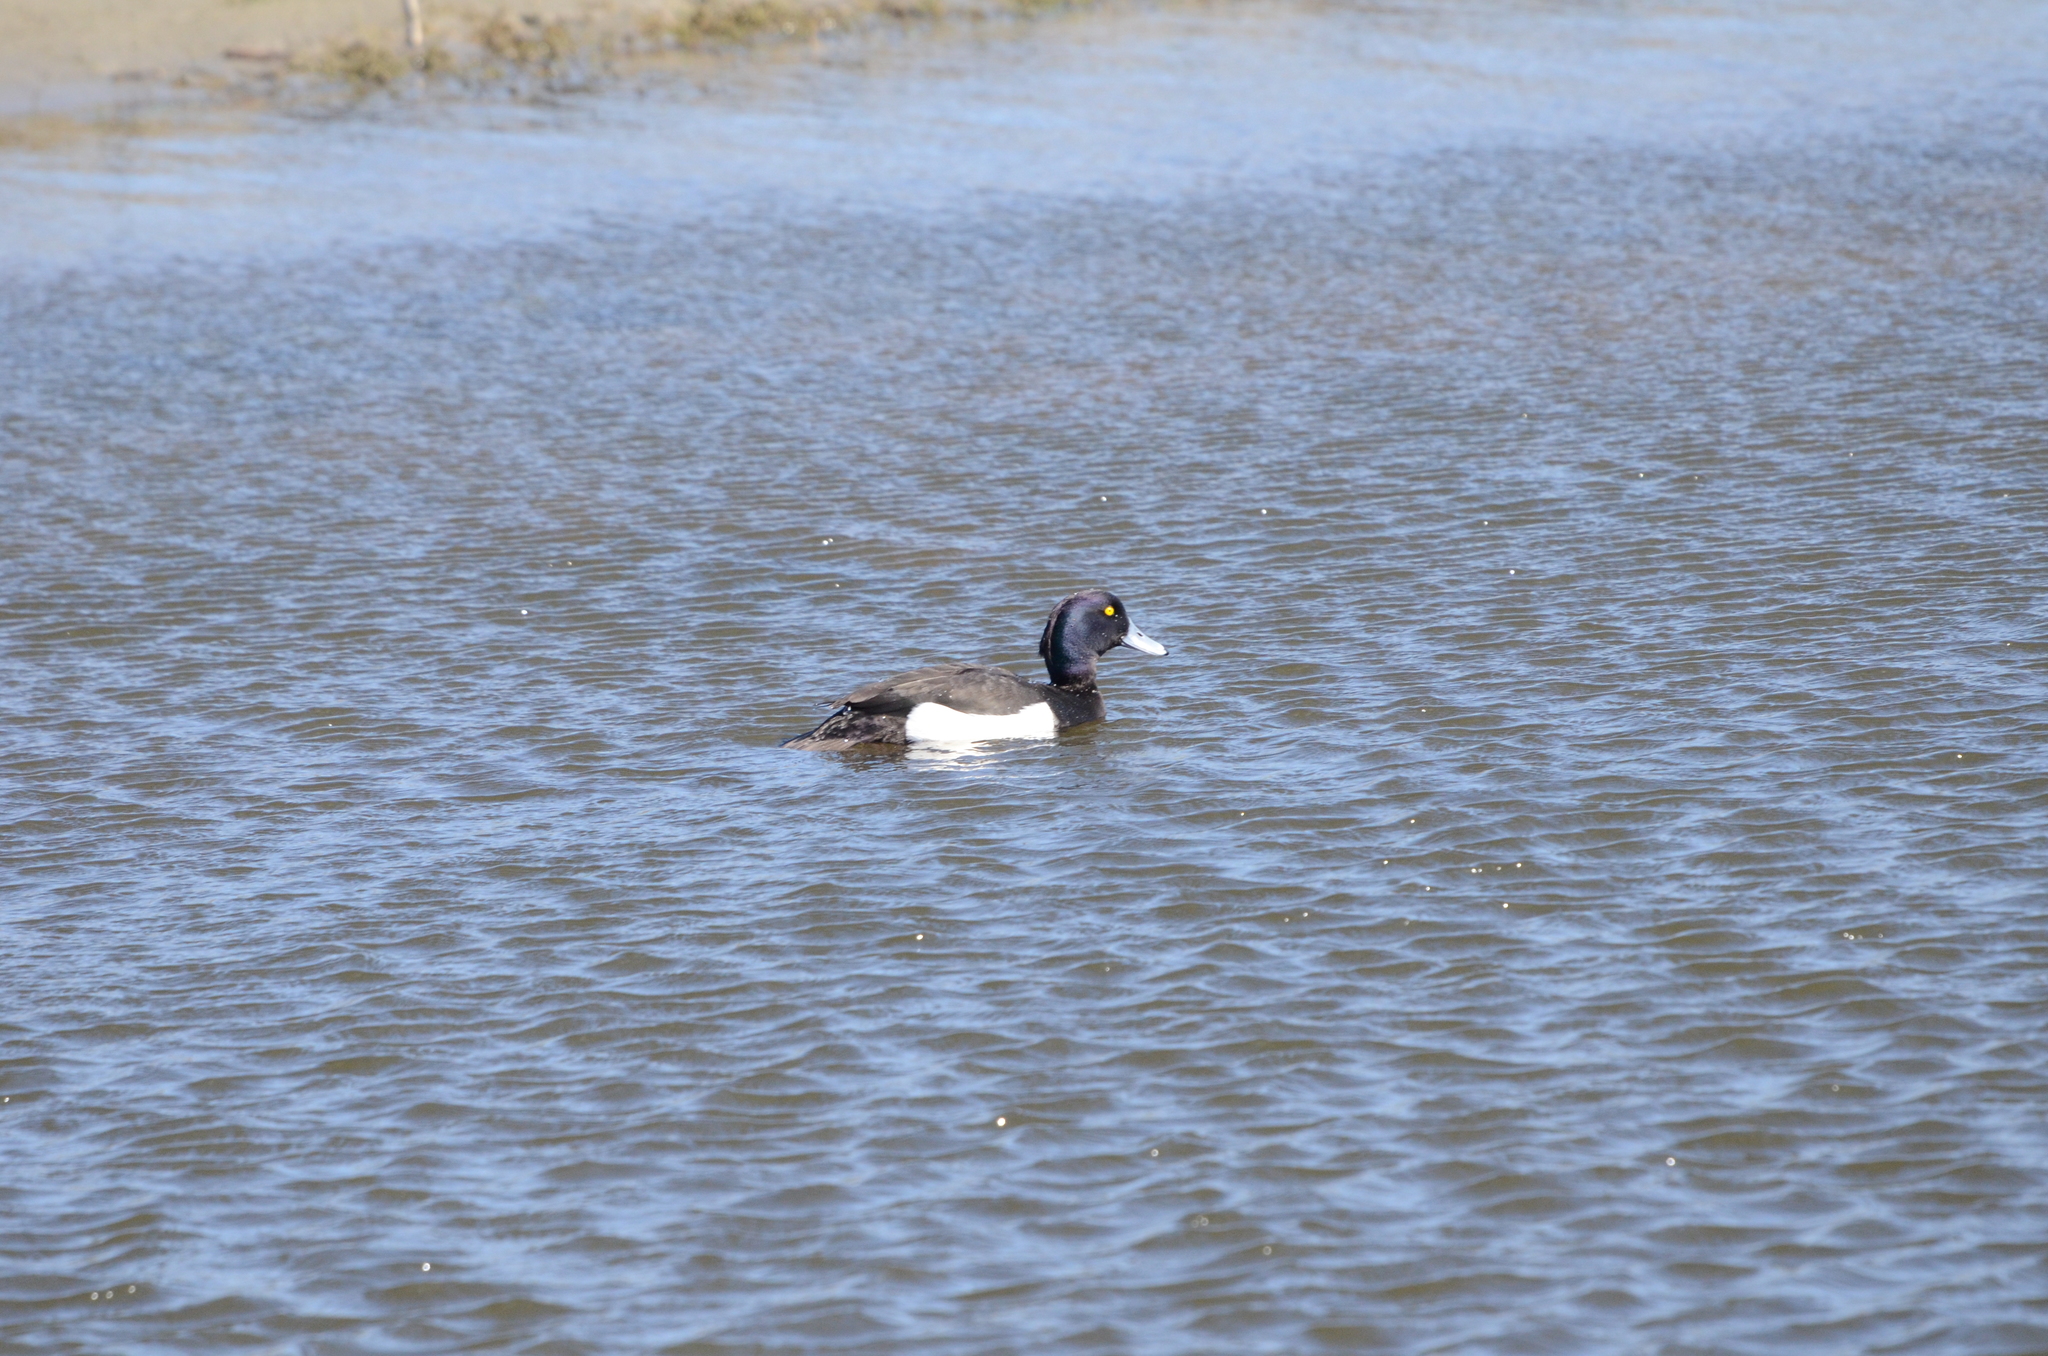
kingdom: Animalia
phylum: Chordata
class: Aves
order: Anseriformes
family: Anatidae
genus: Aythya
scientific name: Aythya fuligula
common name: Tufted duck
